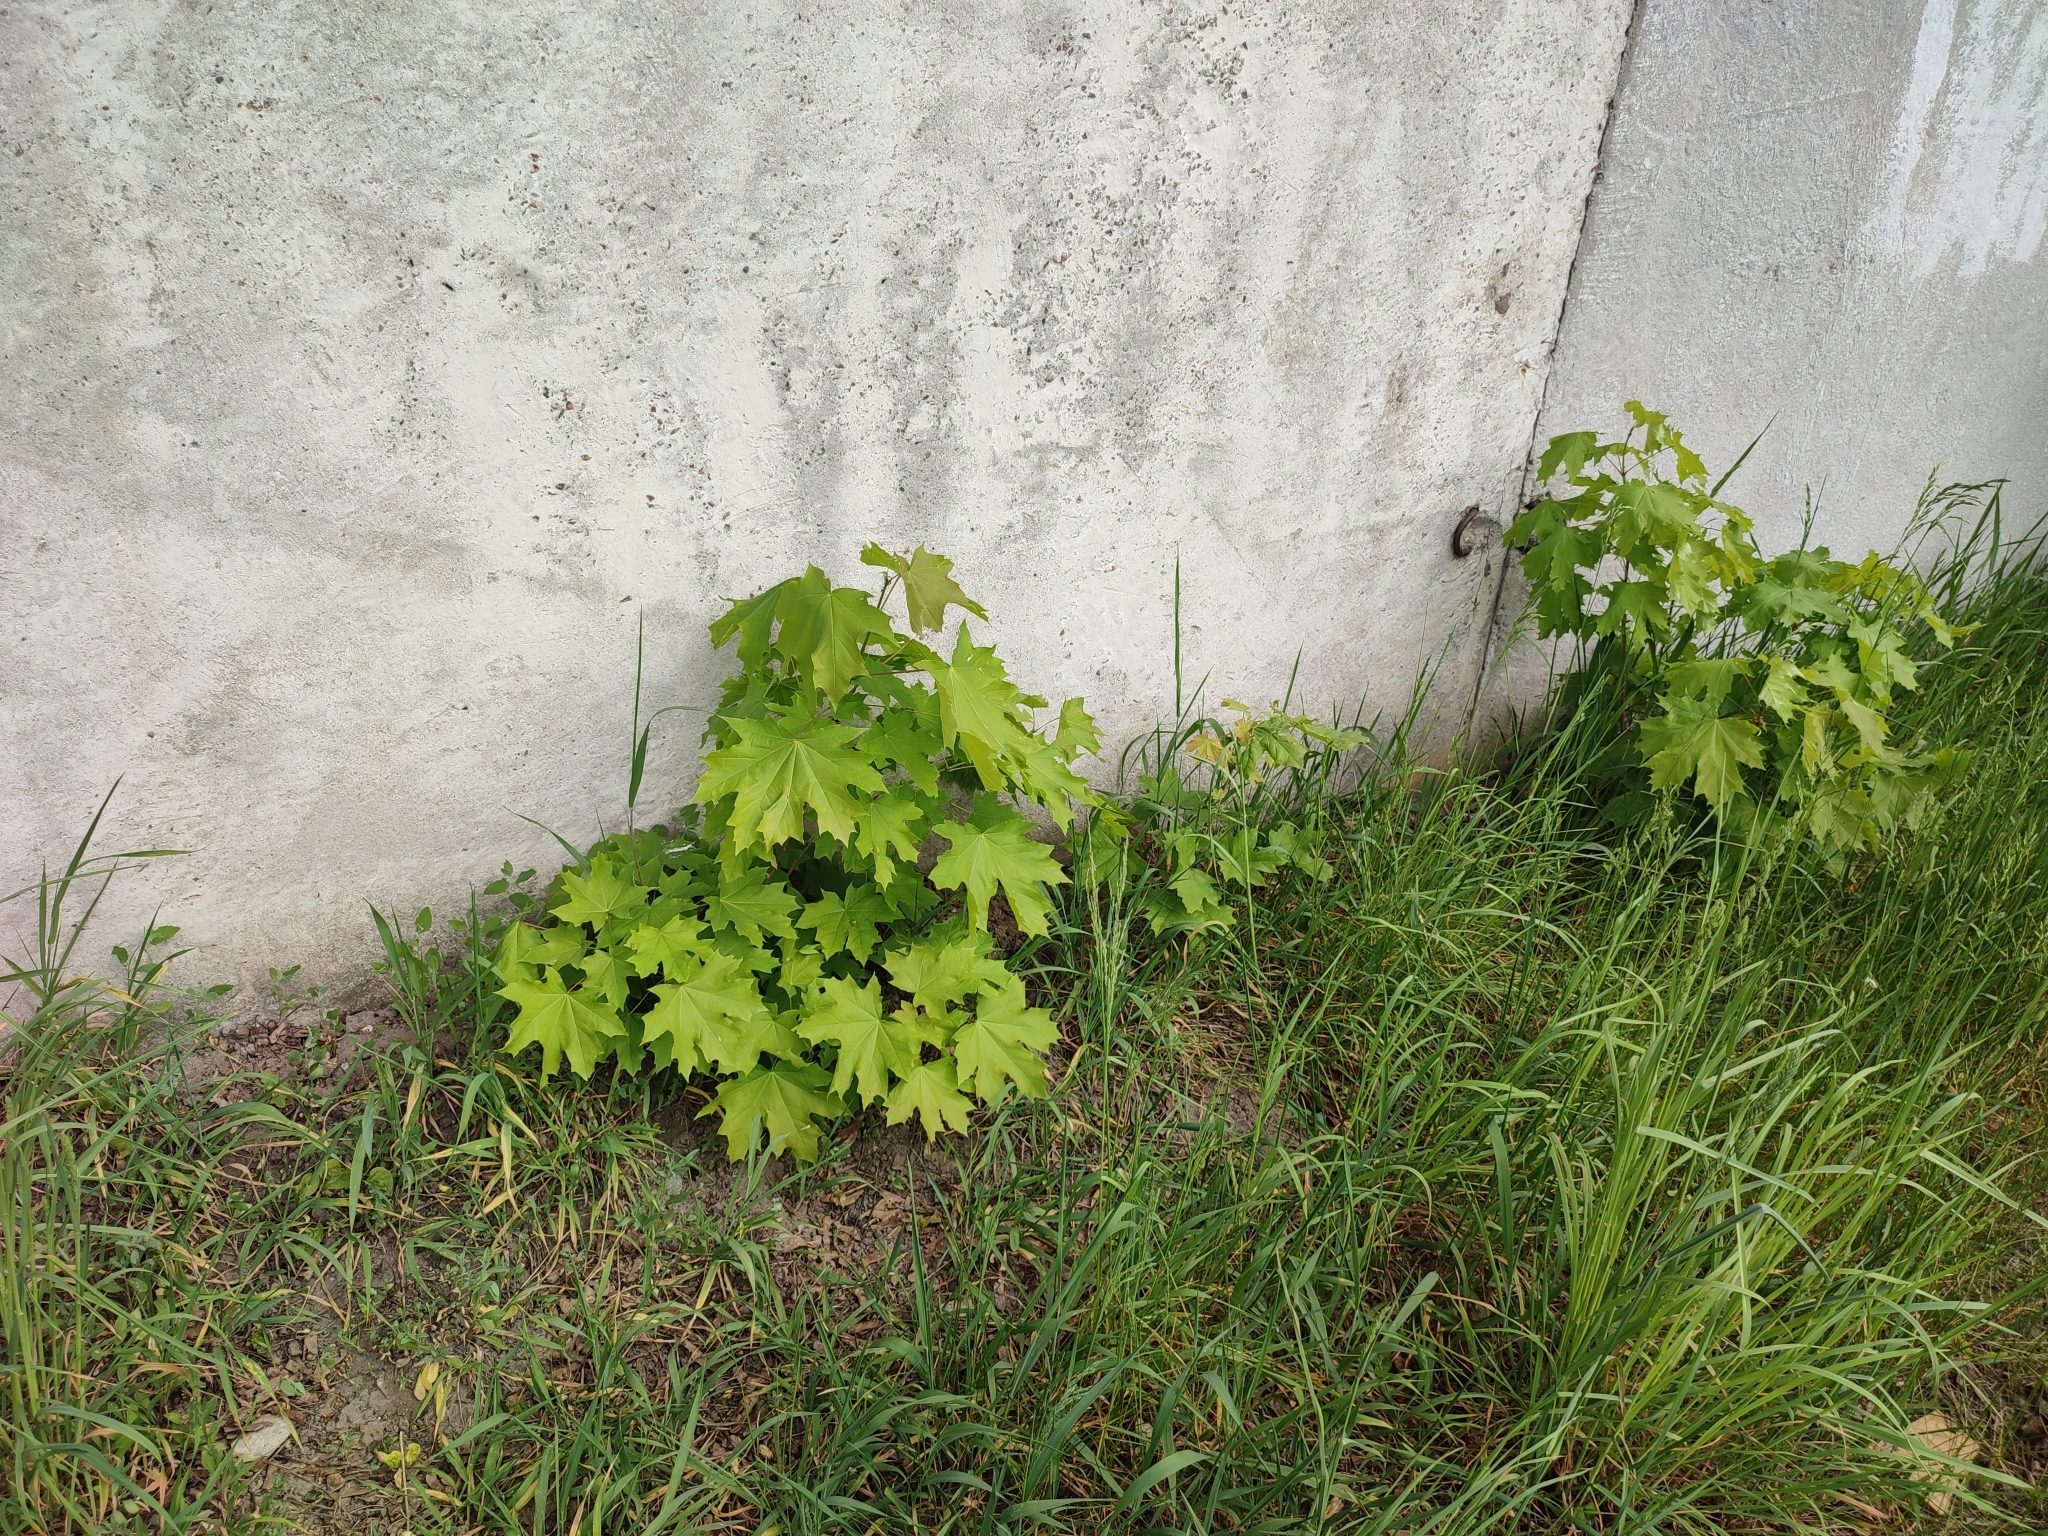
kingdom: Plantae
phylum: Tracheophyta
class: Magnoliopsida
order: Sapindales
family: Sapindaceae
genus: Acer
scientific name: Acer platanoides
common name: Norway maple
